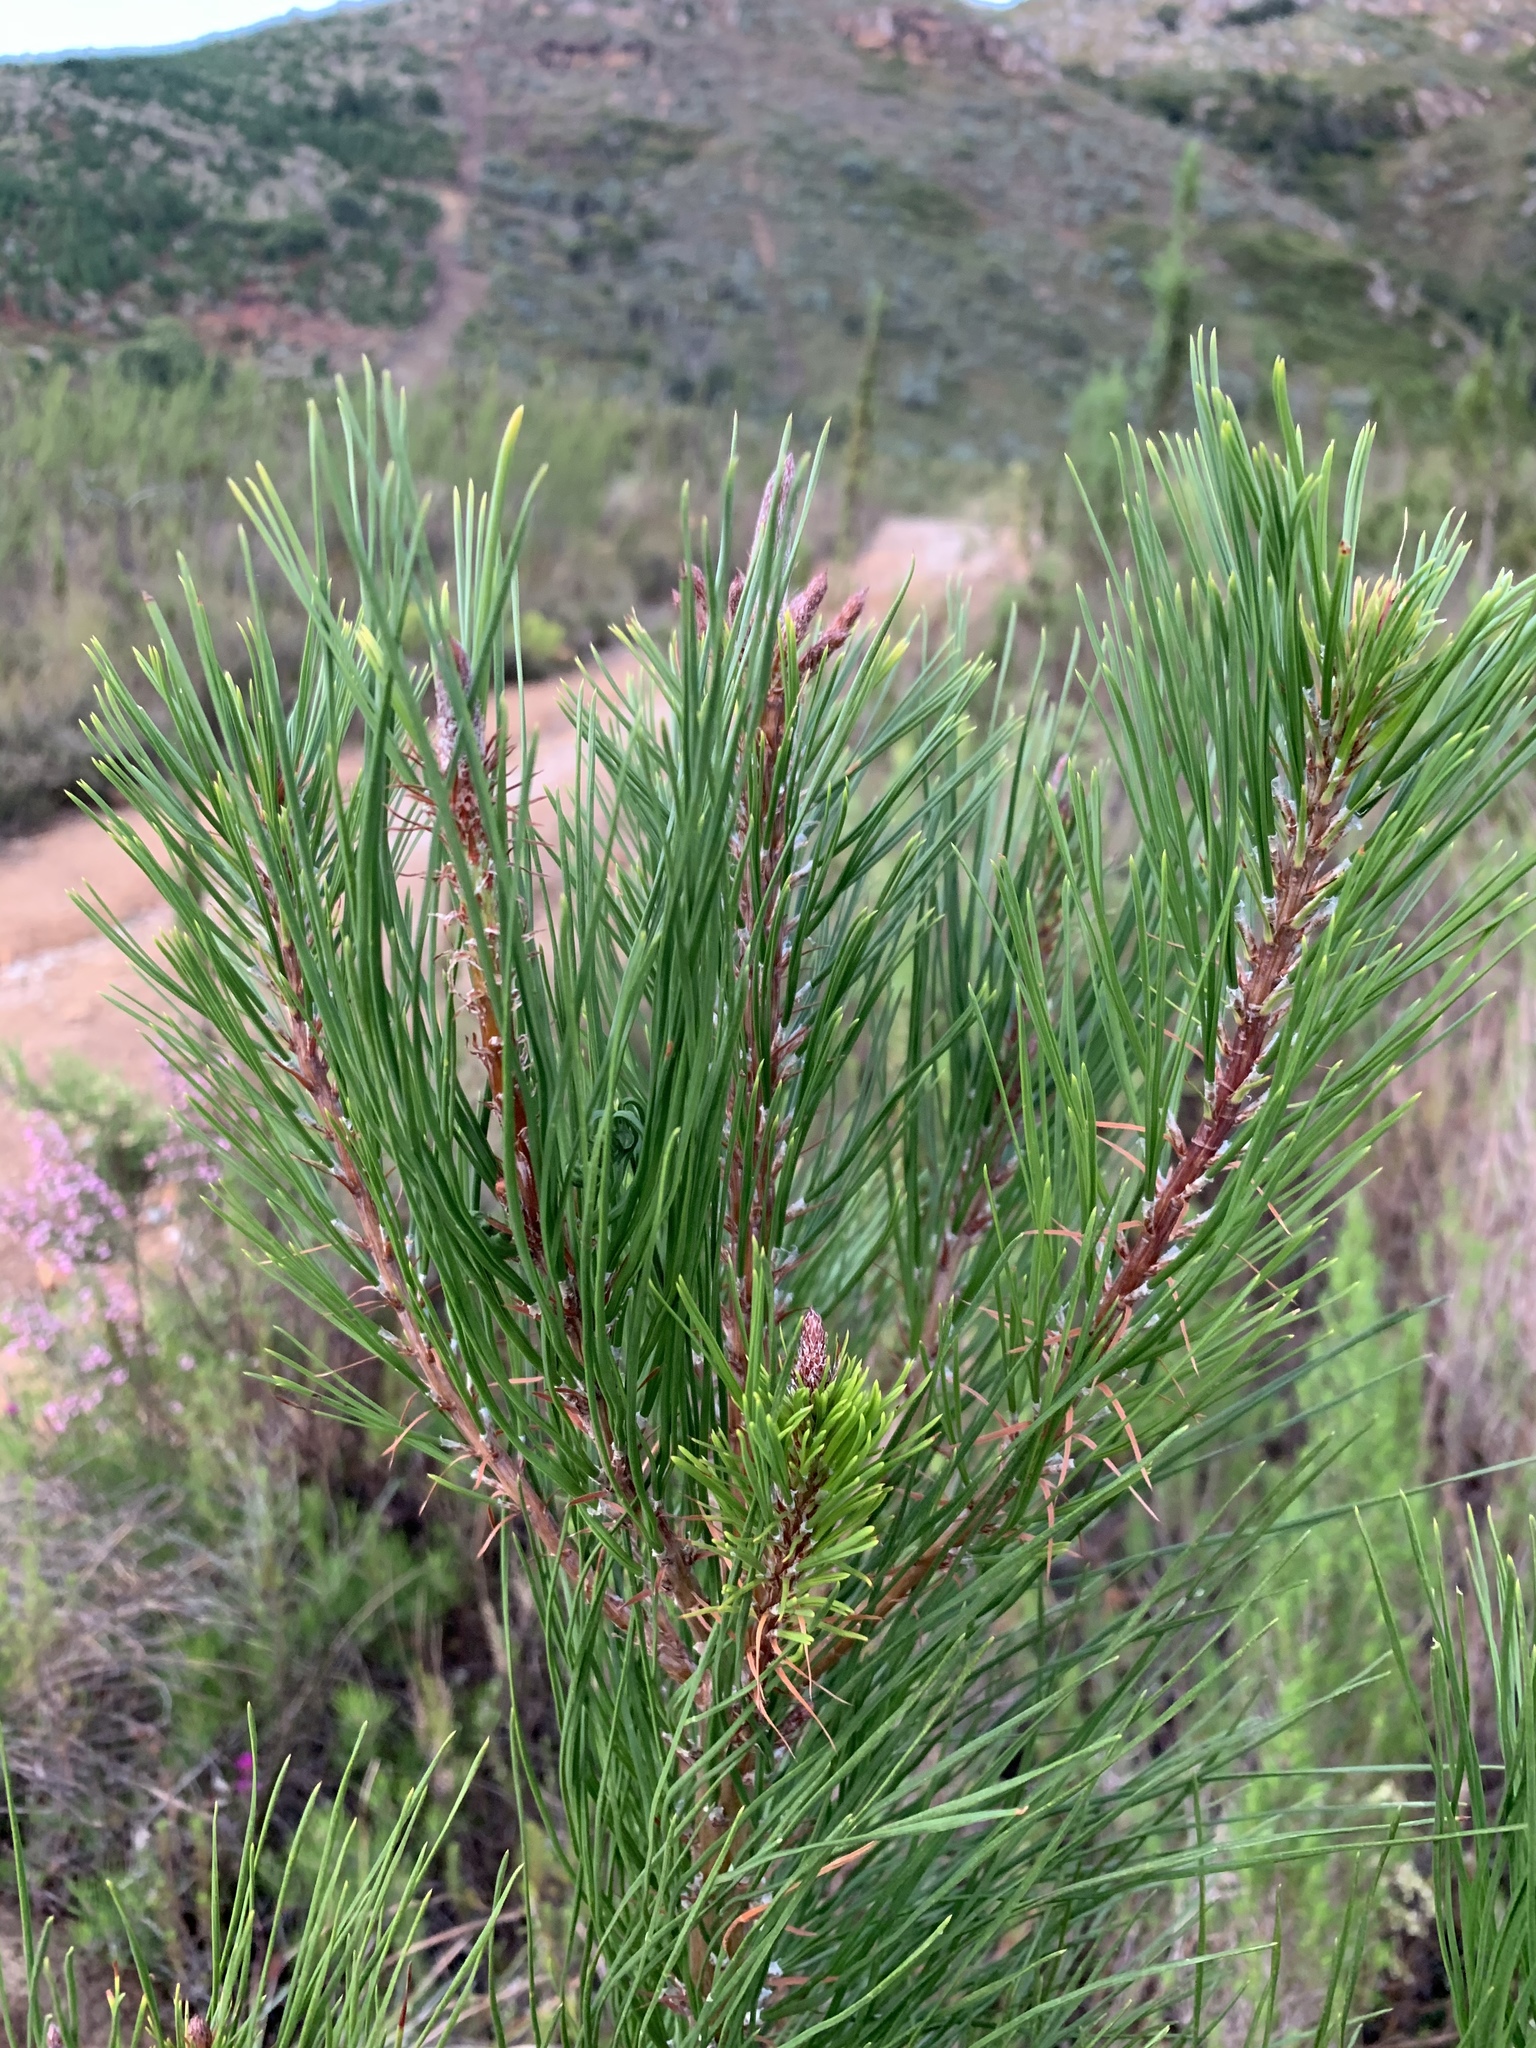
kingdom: Plantae
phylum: Tracheophyta
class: Pinopsida
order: Pinales
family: Pinaceae
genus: Pinus
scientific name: Pinus radiata
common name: Monterey pine
